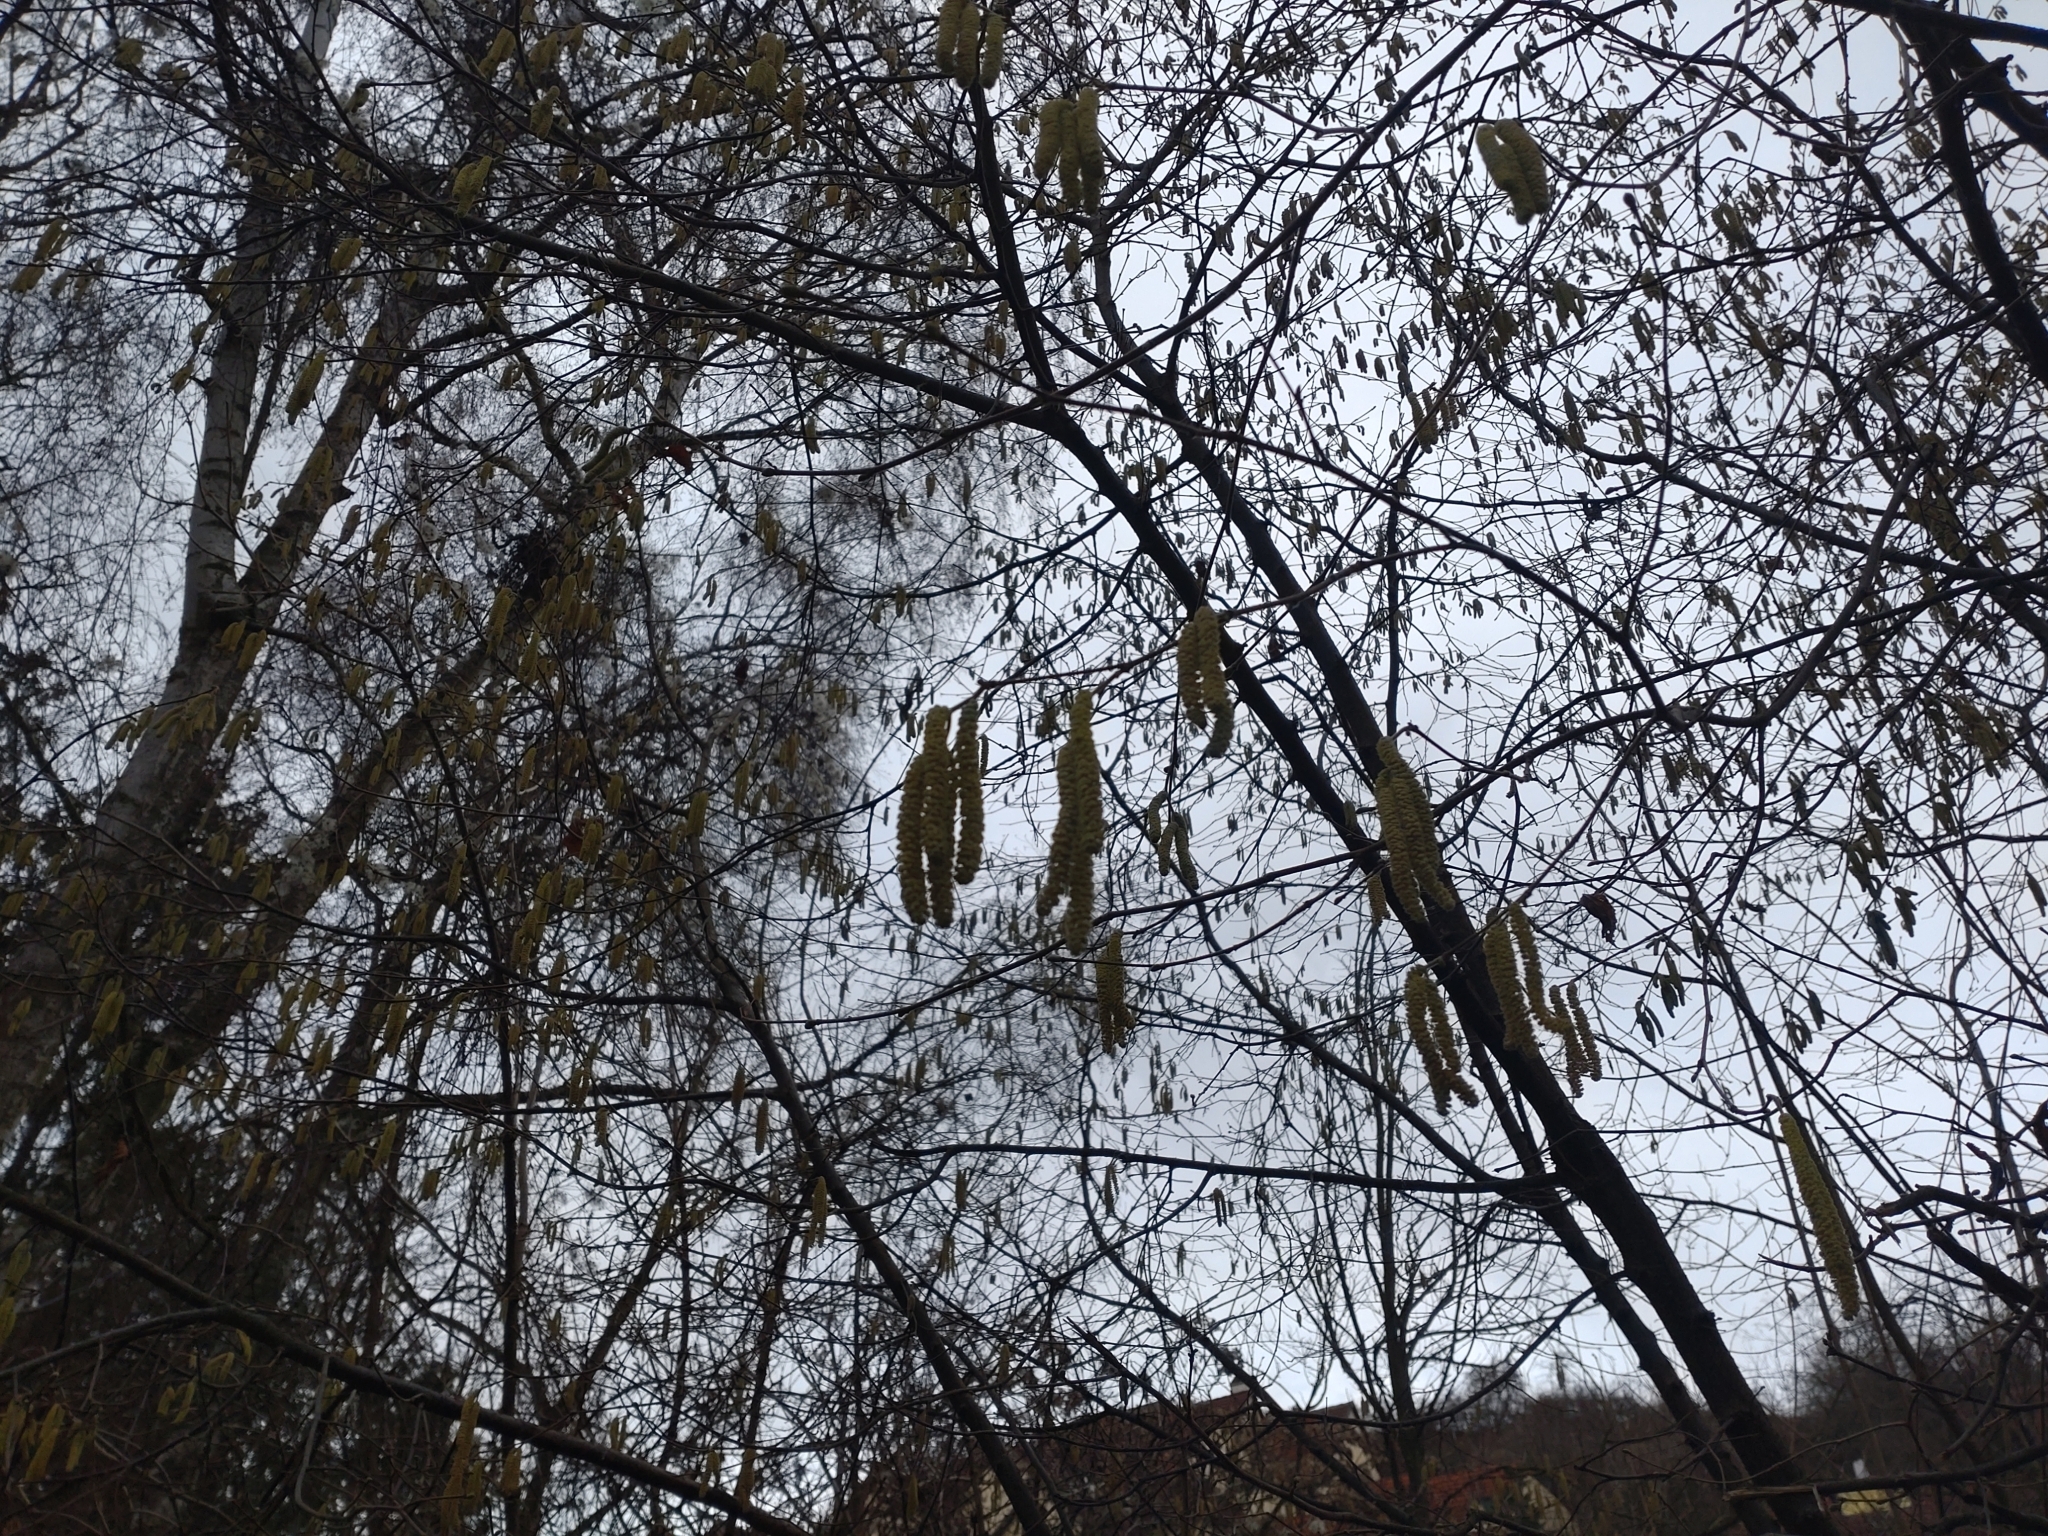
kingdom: Plantae
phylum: Tracheophyta
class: Magnoliopsida
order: Fagales
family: Betulaceae
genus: Corylus
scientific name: Corylus avellana
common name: European hazel
